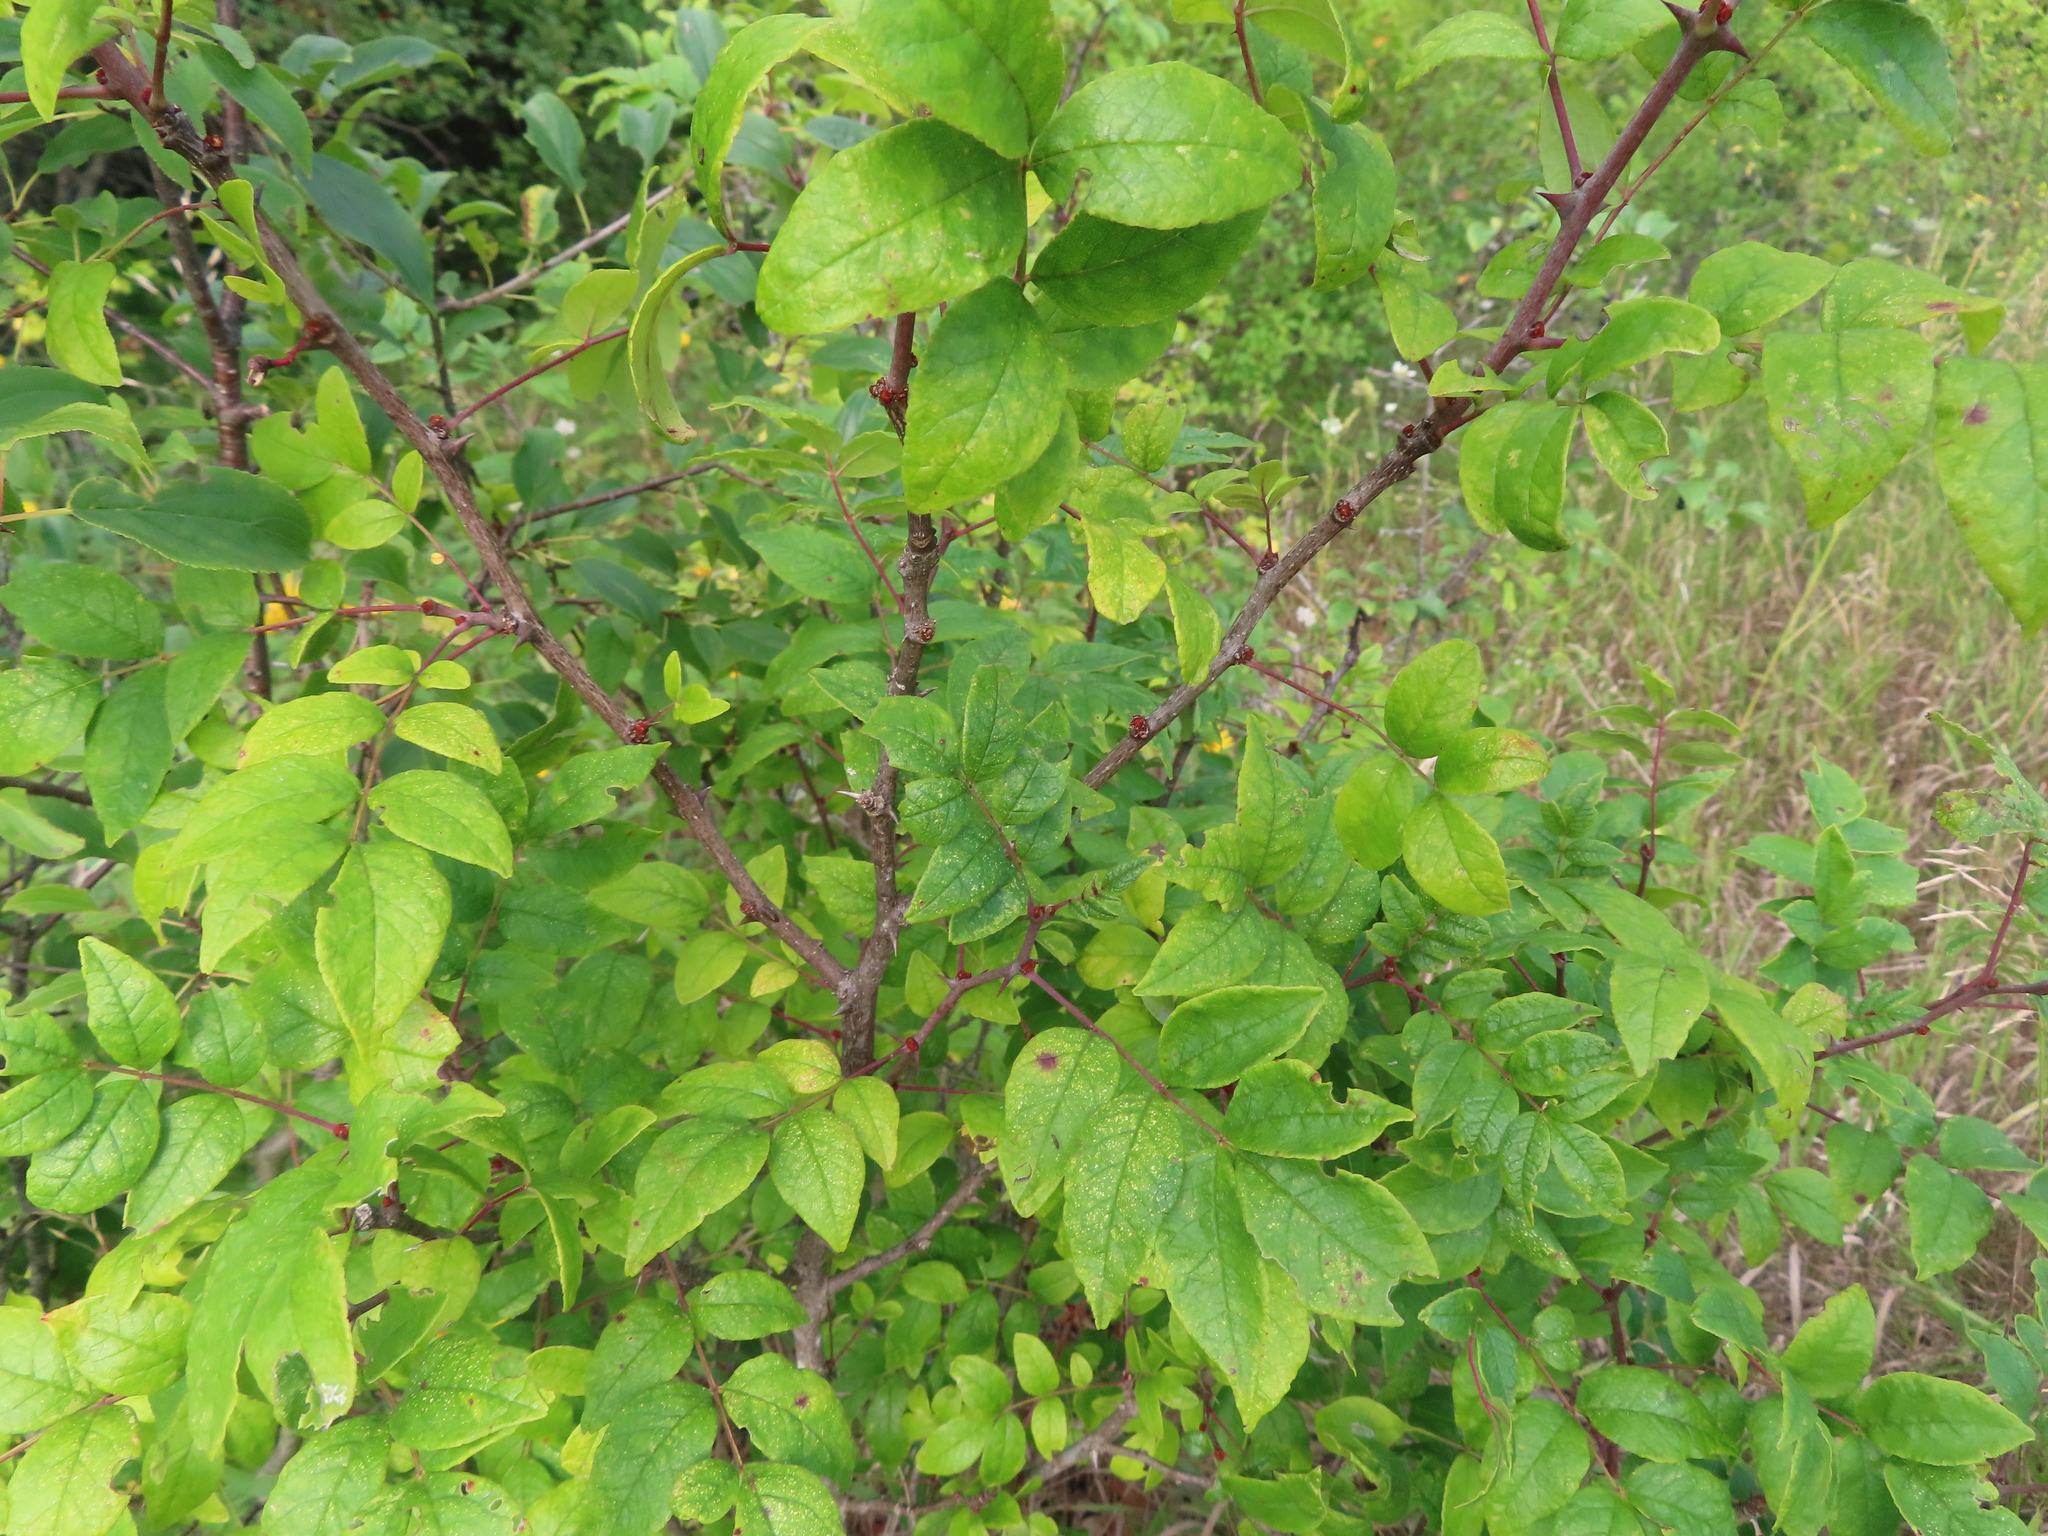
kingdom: Plantae
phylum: Tracheophyta
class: Magnoliopsida
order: Sapindales
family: Rutaceae
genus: Zanthoxylum
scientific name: Zanthoxylum americanum
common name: Northern prickly-ash
